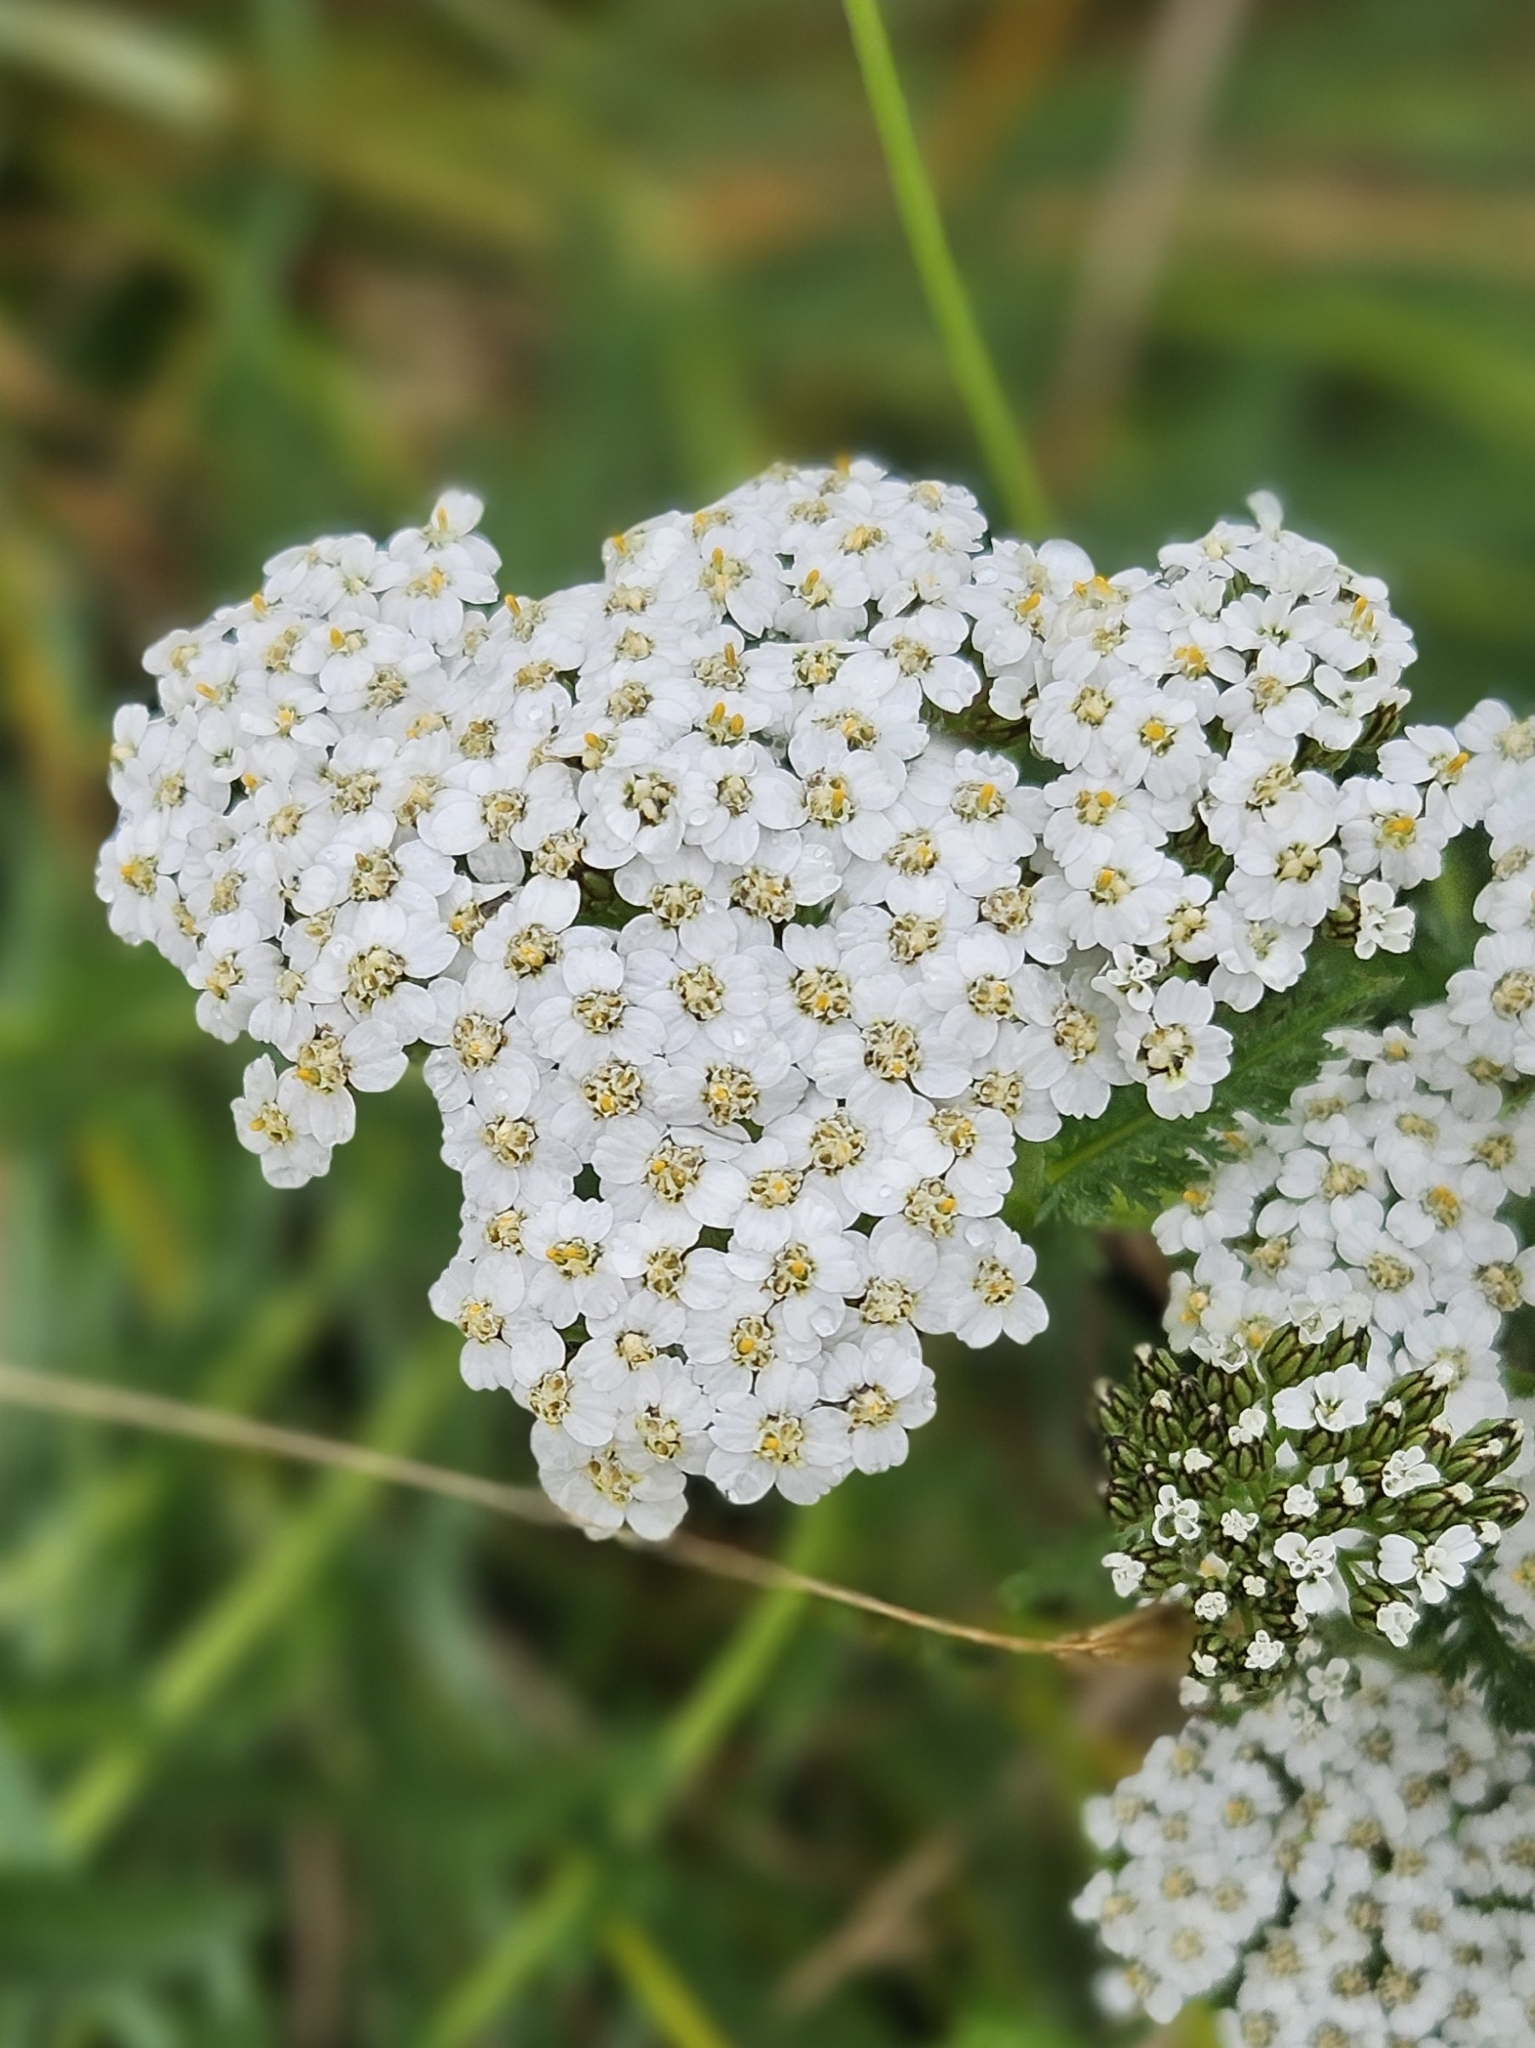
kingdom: Plantae
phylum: Tracheophyta
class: Magnoliopsida
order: Asterales
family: Asteraceae
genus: Achillea
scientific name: Achillea millefolium
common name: Yarrow
